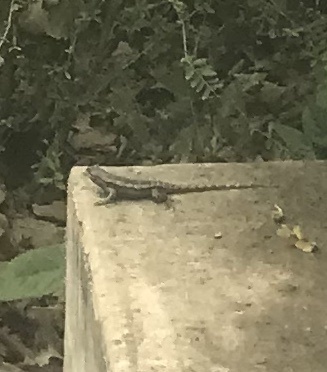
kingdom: Animalia
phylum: Chordata
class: Squamata
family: Phrynosomatidae
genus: Sceloporus
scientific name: Sceloporus olivaceus
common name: Texas spiny lizard
